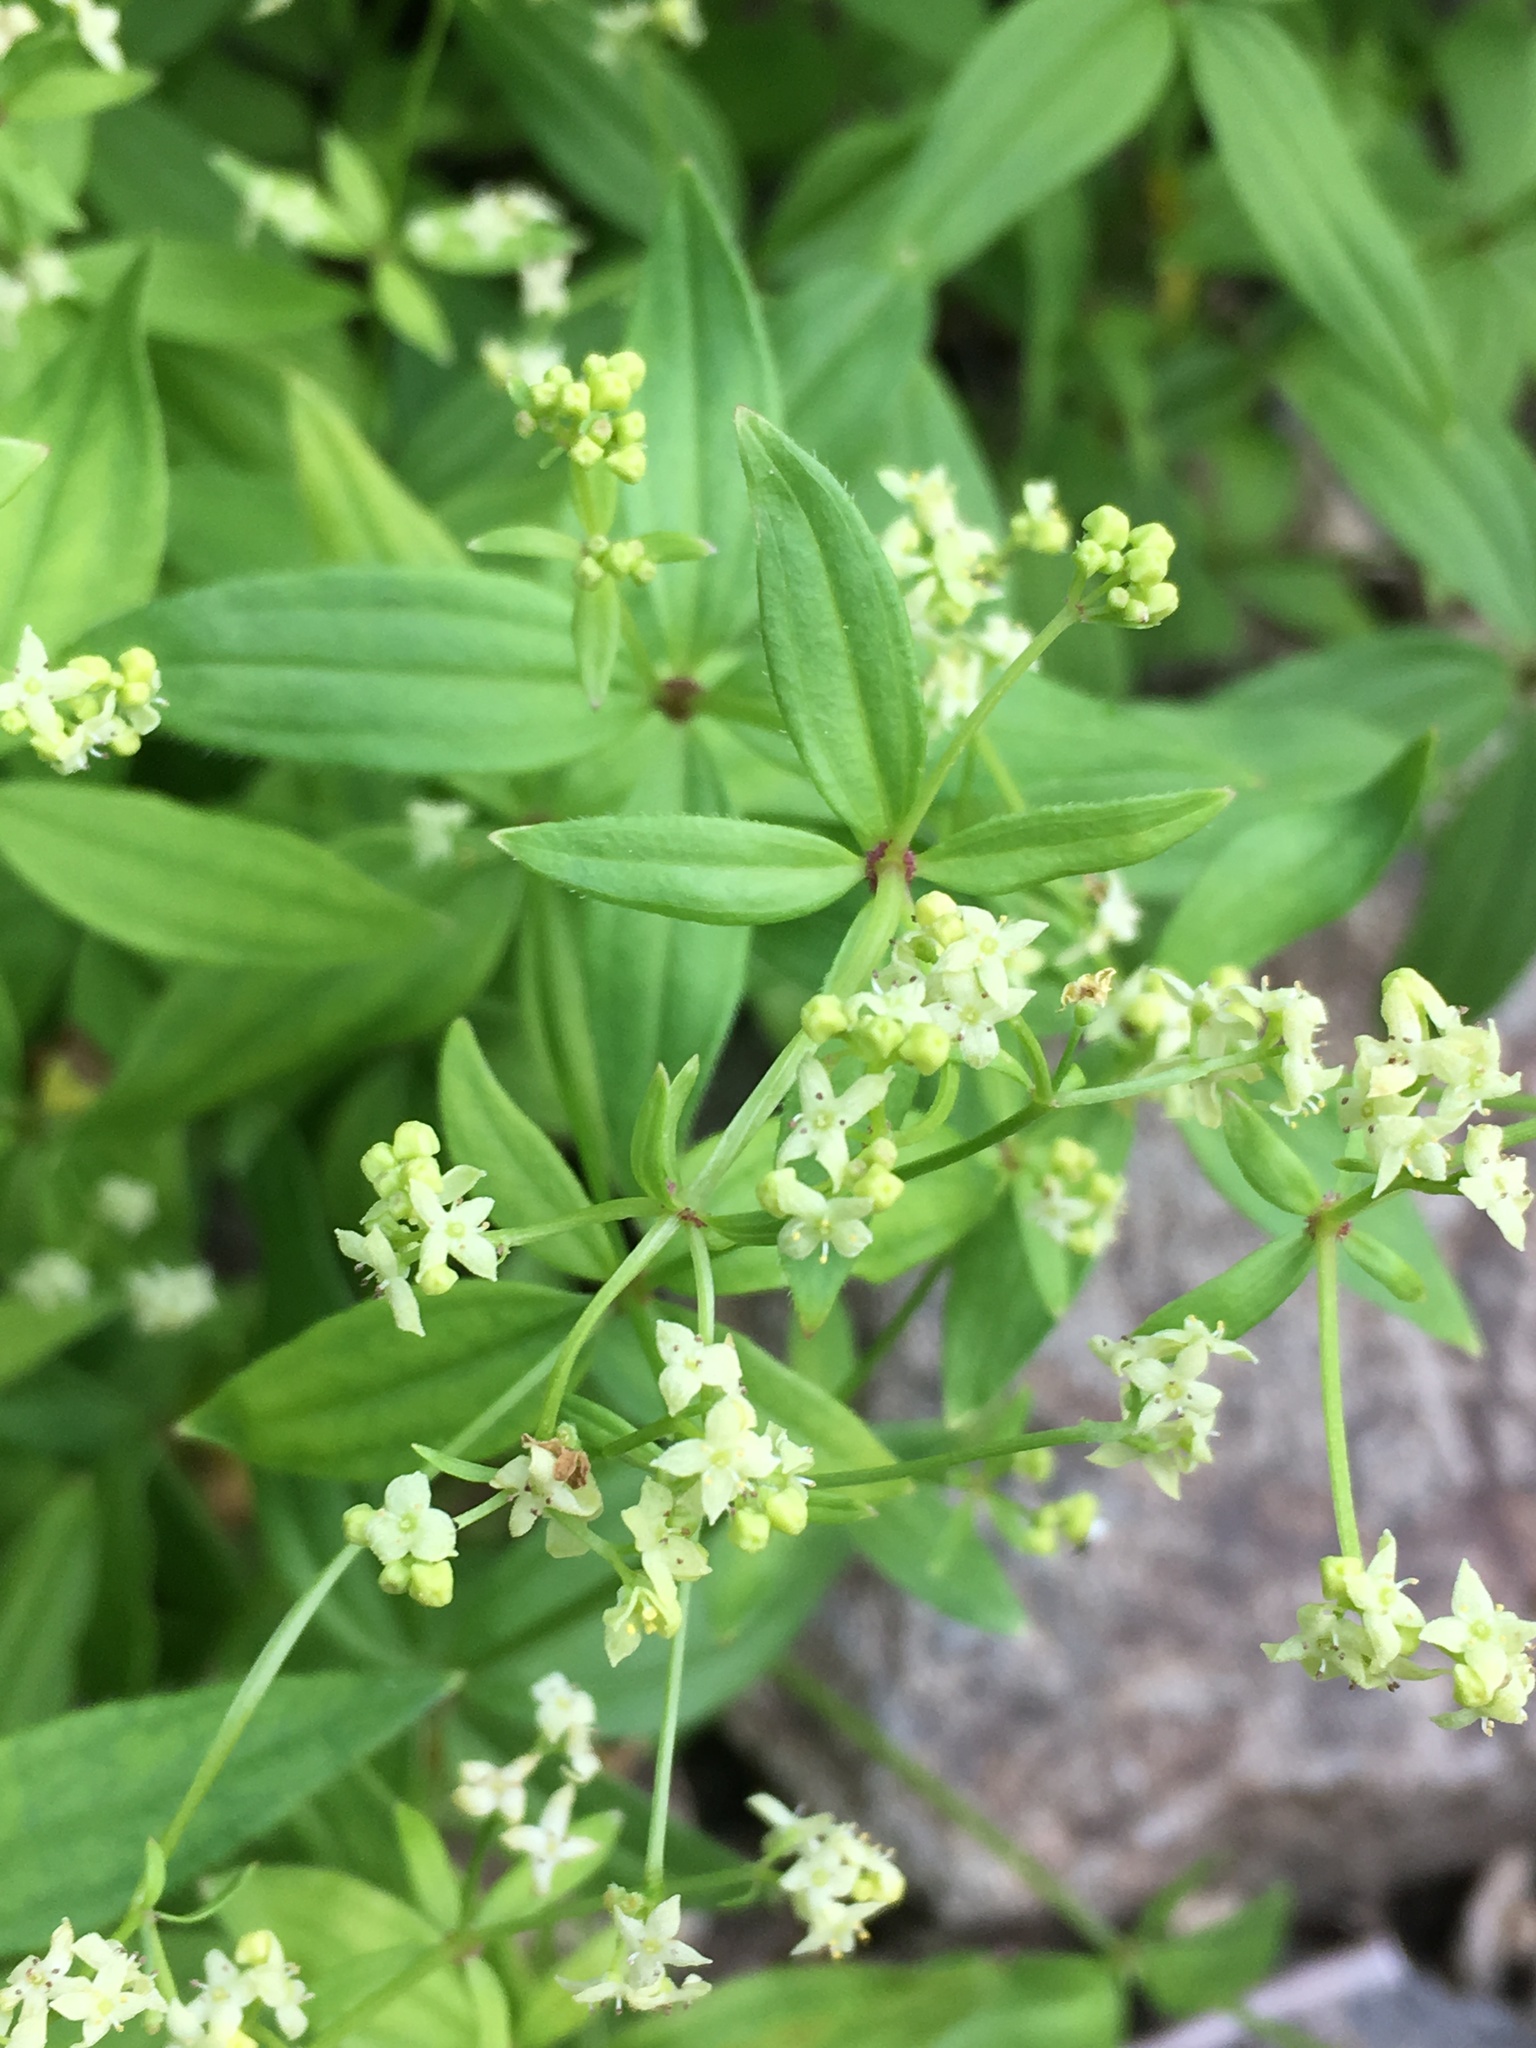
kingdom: Plantae
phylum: Tracheophyta
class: Magnoliopsida
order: Gentianales
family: Rubiaceae
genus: Galium
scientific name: Galium oreganum
